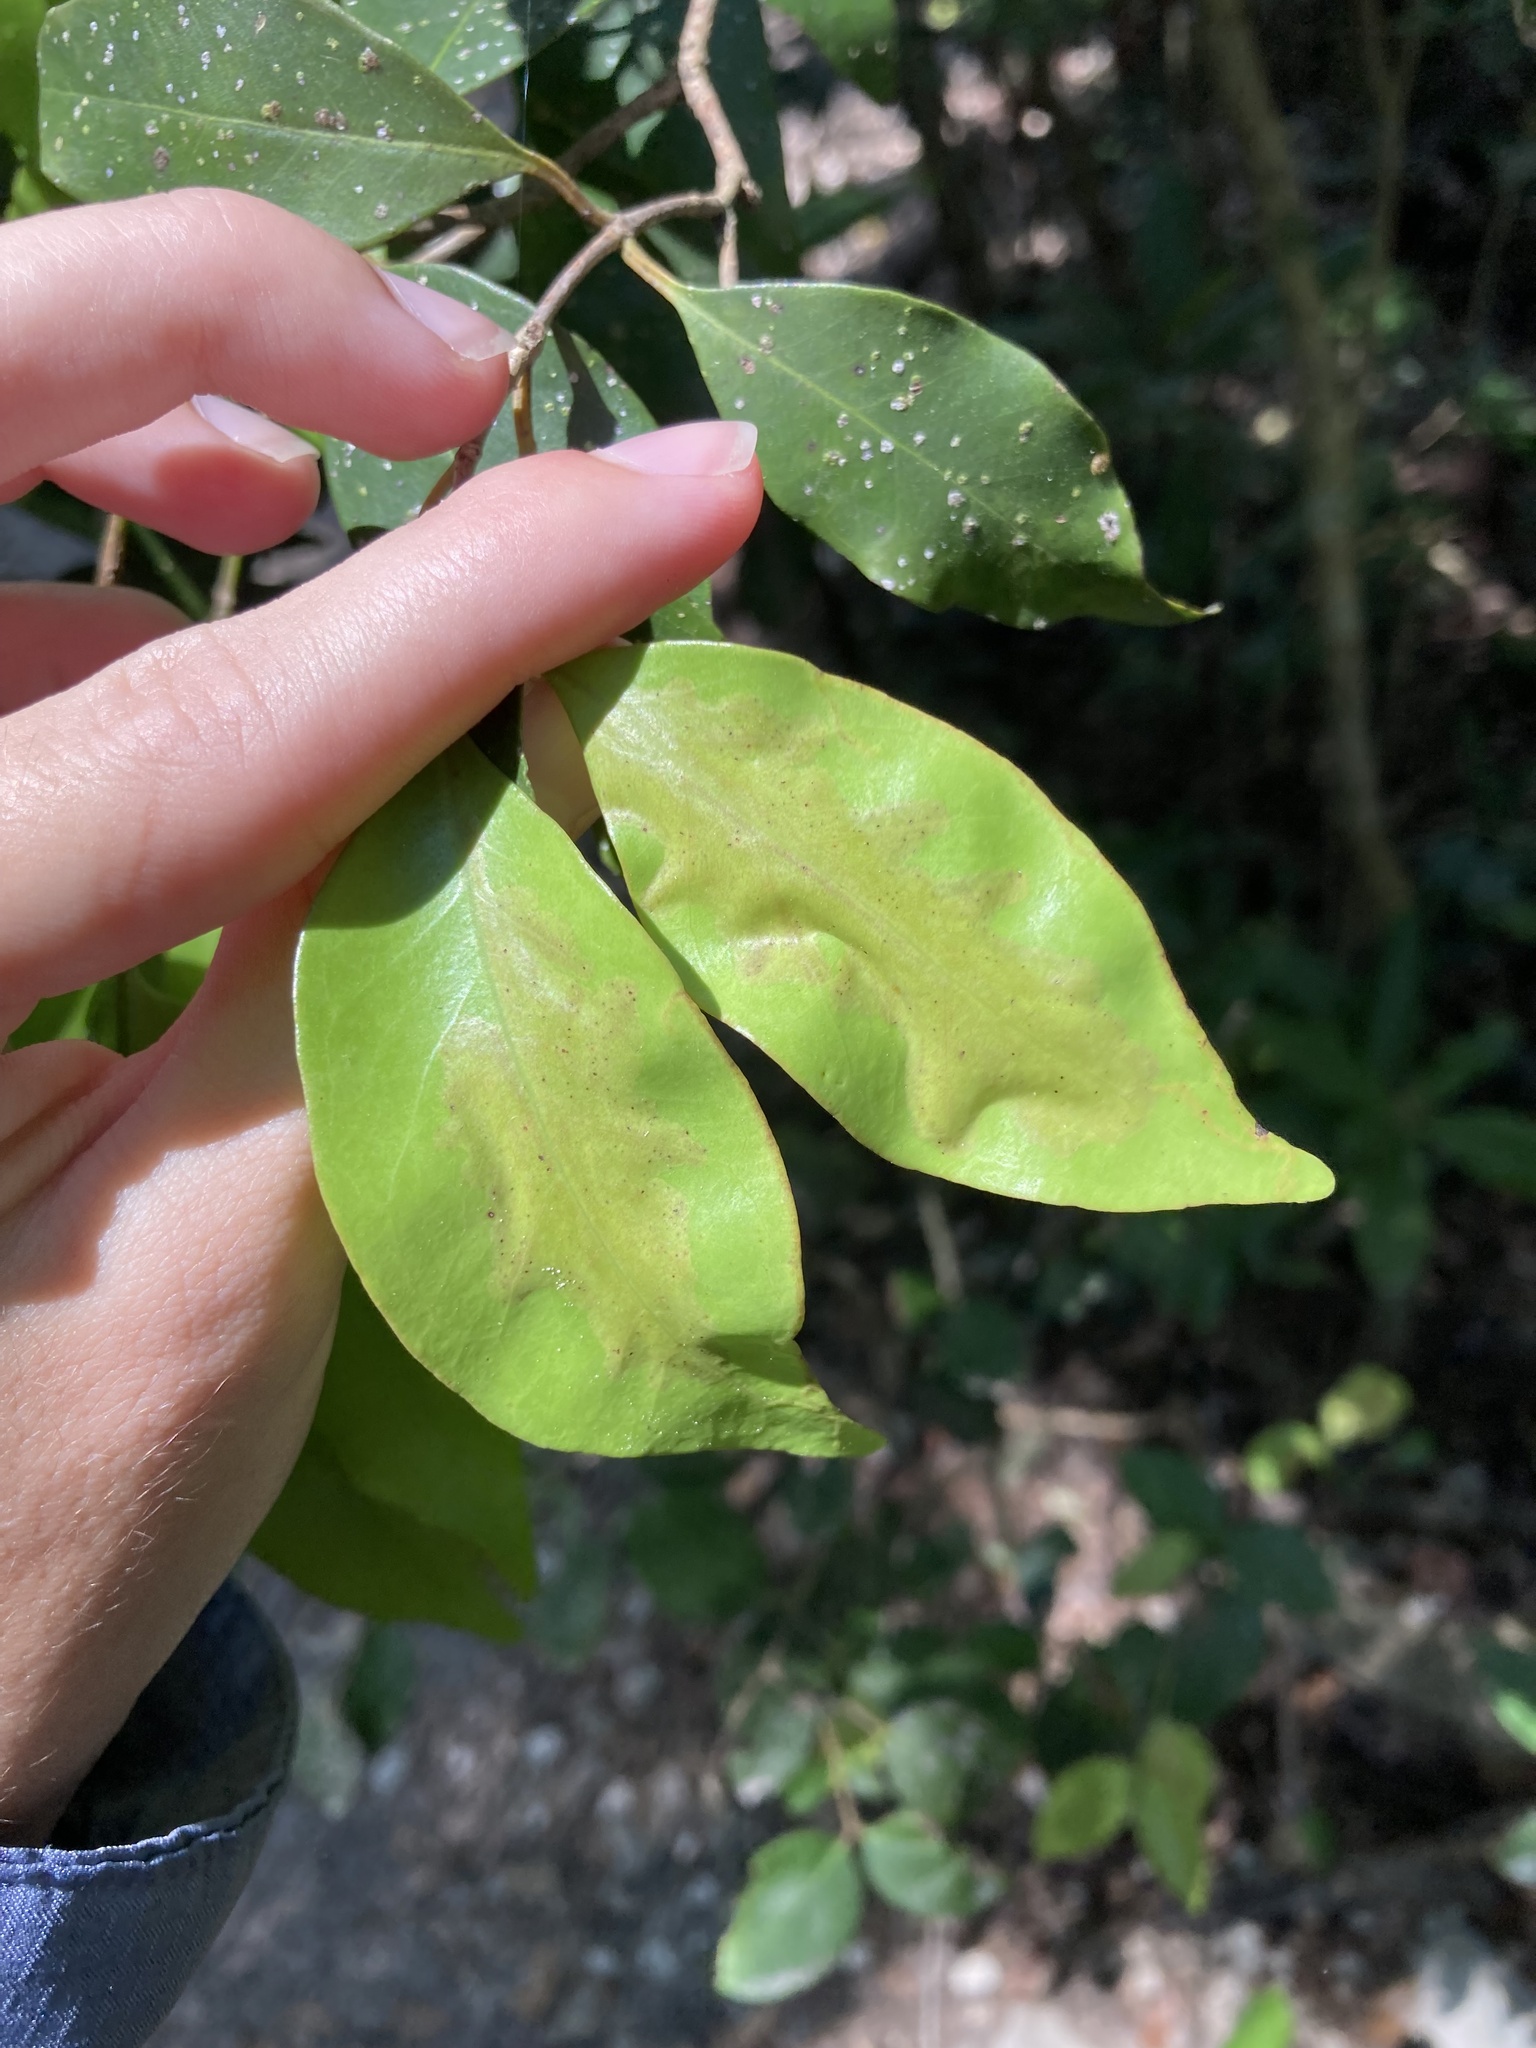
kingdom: Animalia
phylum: Arthropoda
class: Insecta
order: Lepidoptera
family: Gracillariidae
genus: Chilocampyla
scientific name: Chilocampyla dyariella
